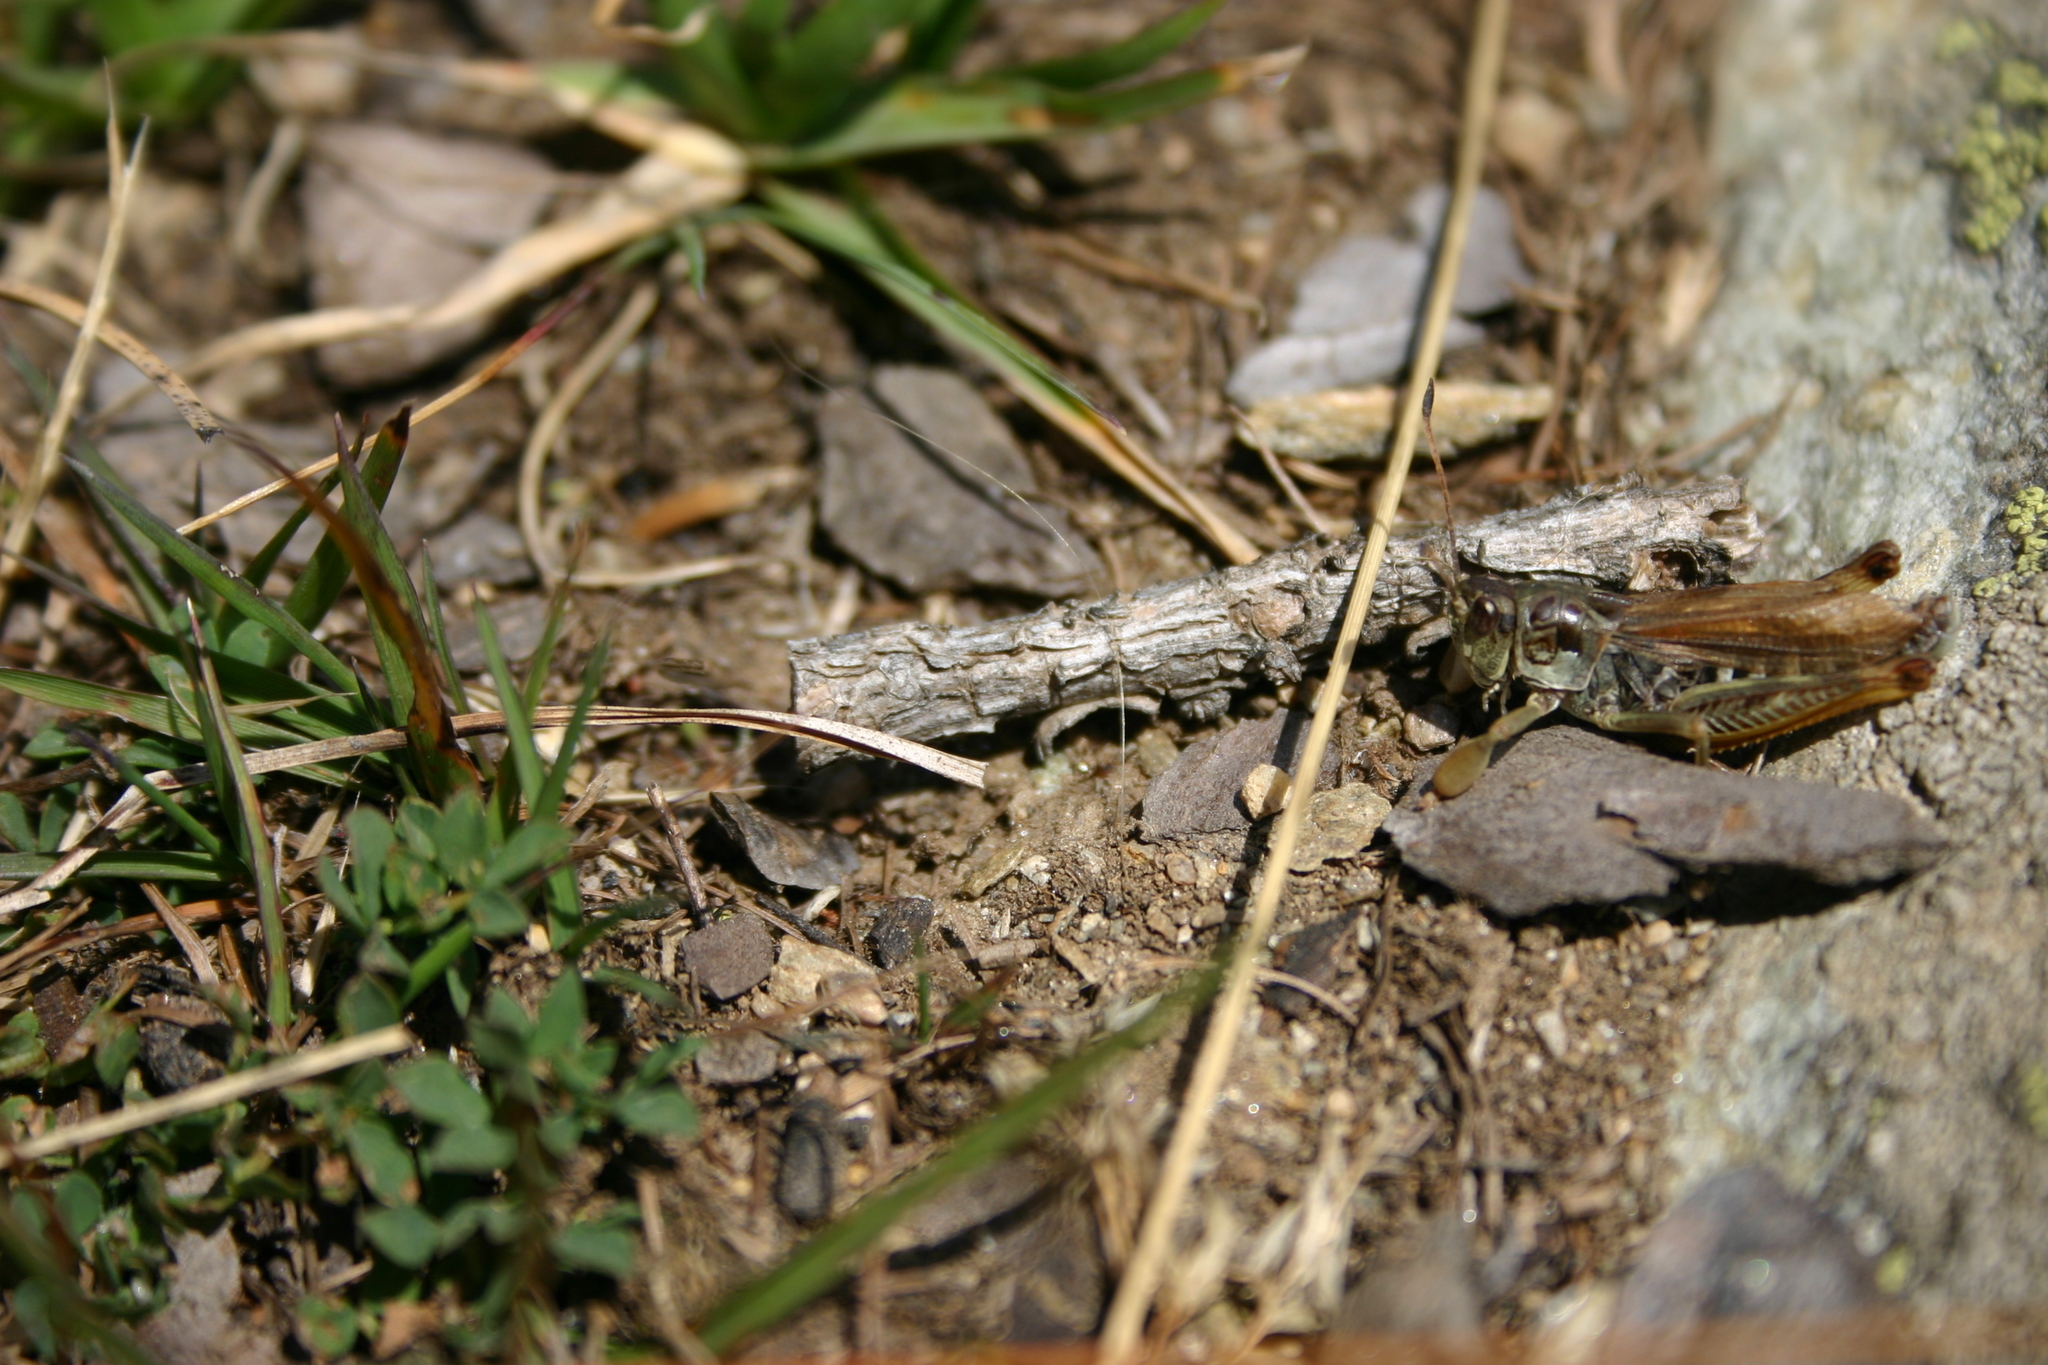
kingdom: Animalia
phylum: Arthropoda
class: Insecta
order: Orthoptera
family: Acrididae
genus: Gomphocerus
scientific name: Gomphocerus sibiricus
